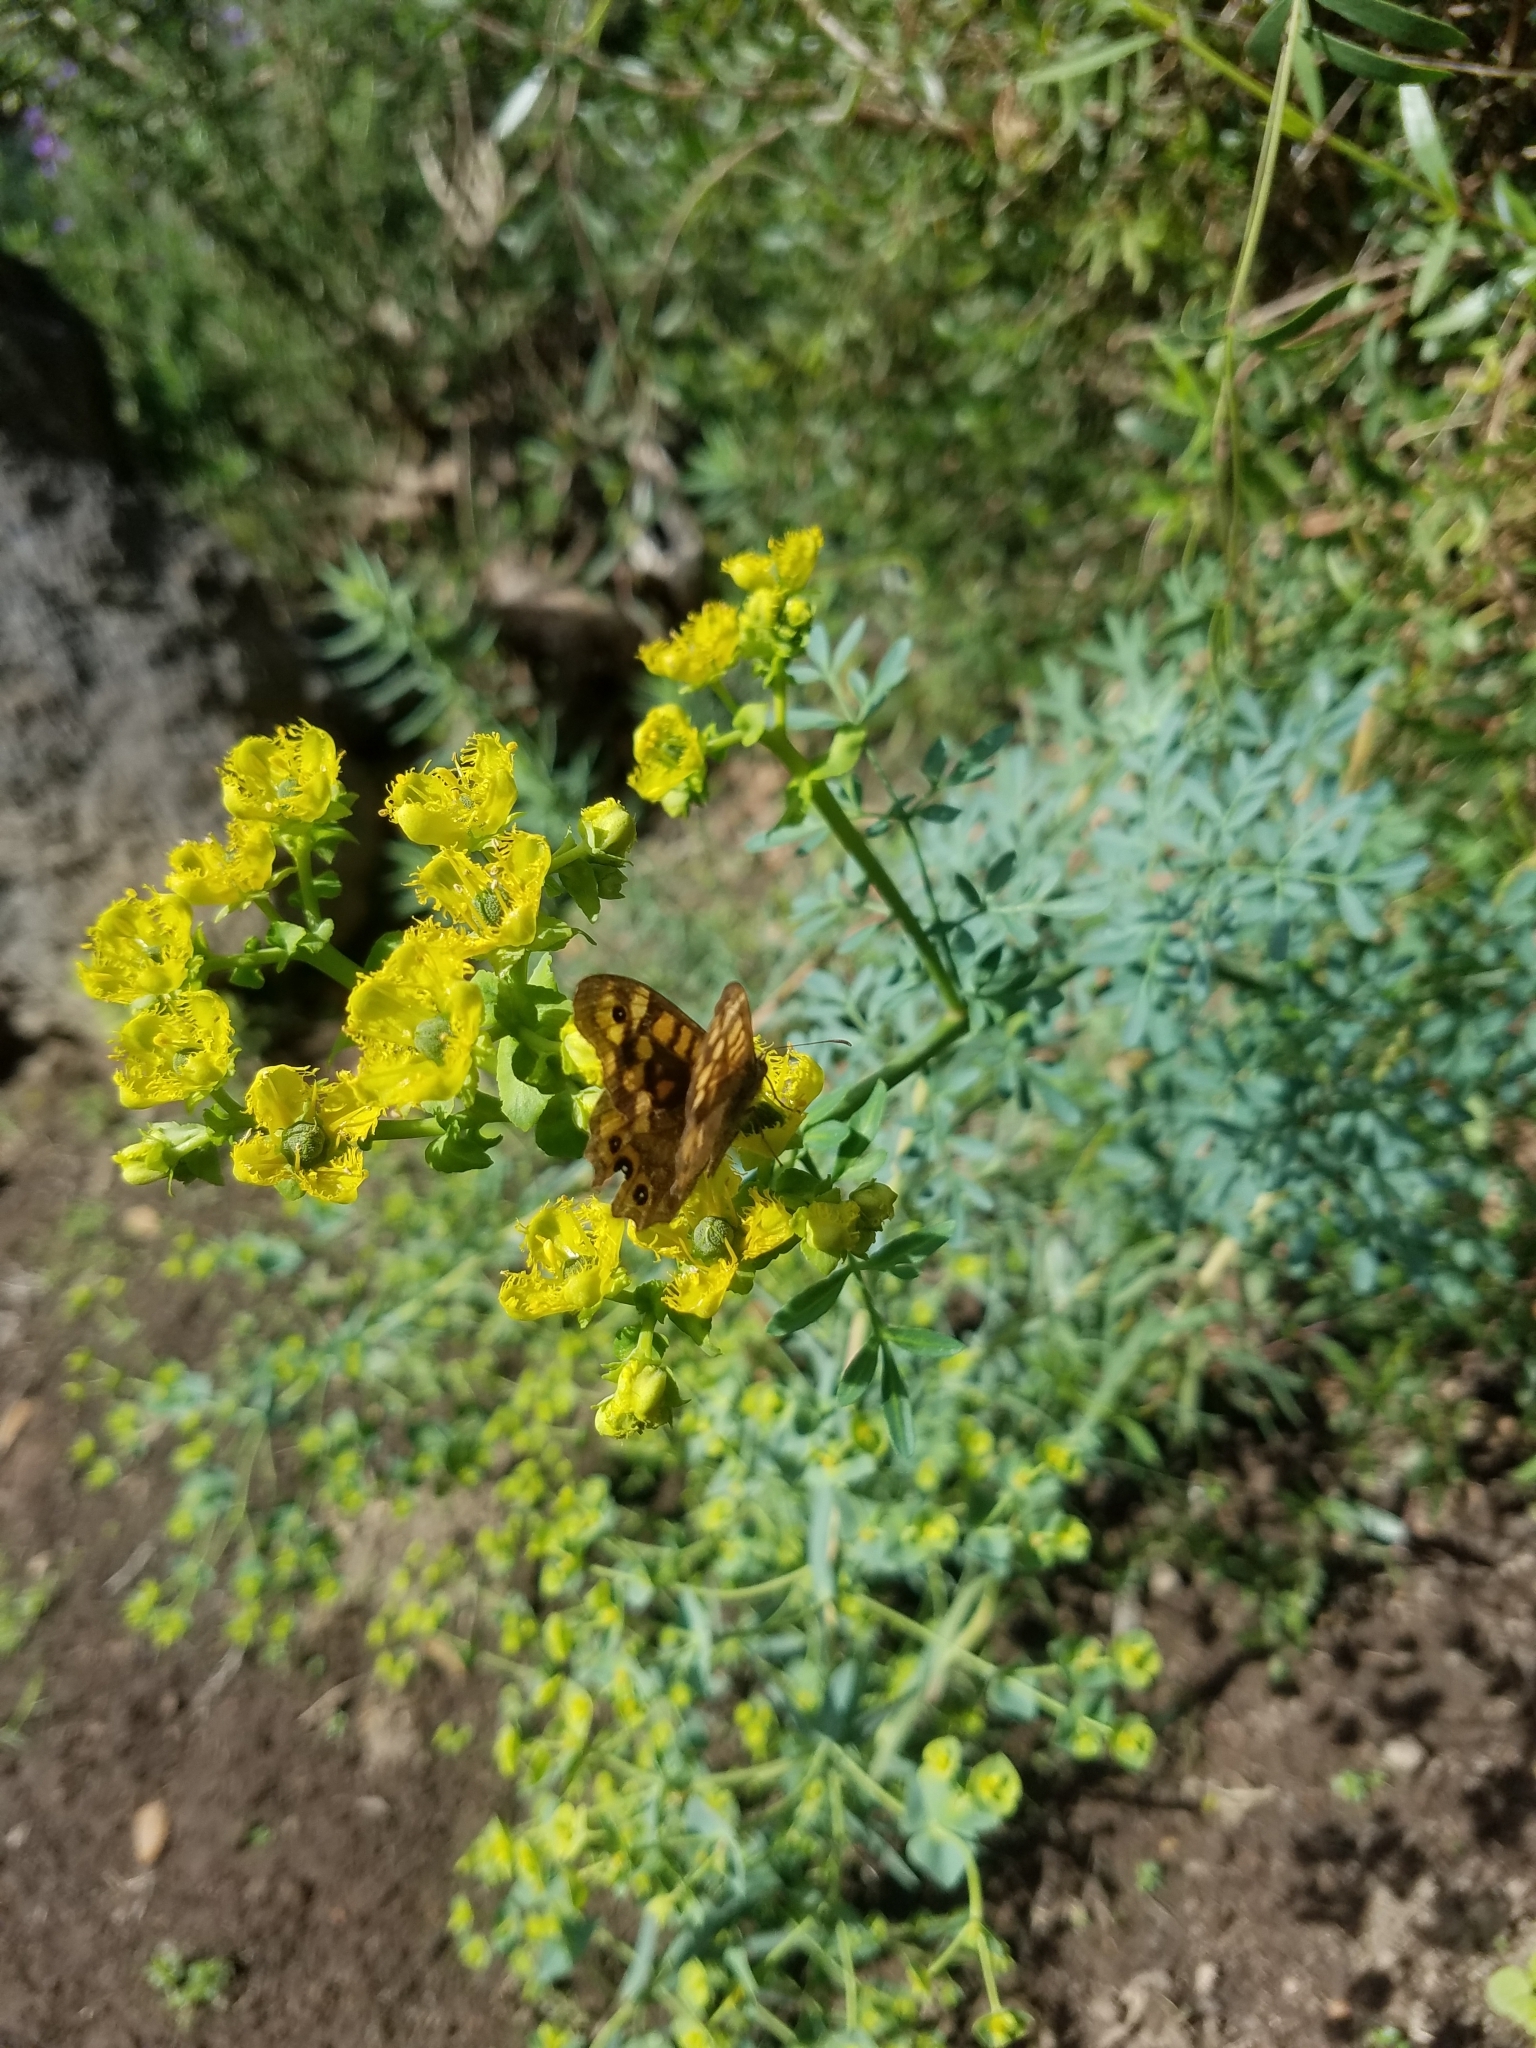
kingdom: Animalia
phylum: Arthropoda
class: Insecta
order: Lepidoptera
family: Nymphalidae
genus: Pararge
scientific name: Pararge aegeria
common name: Speckled wood
